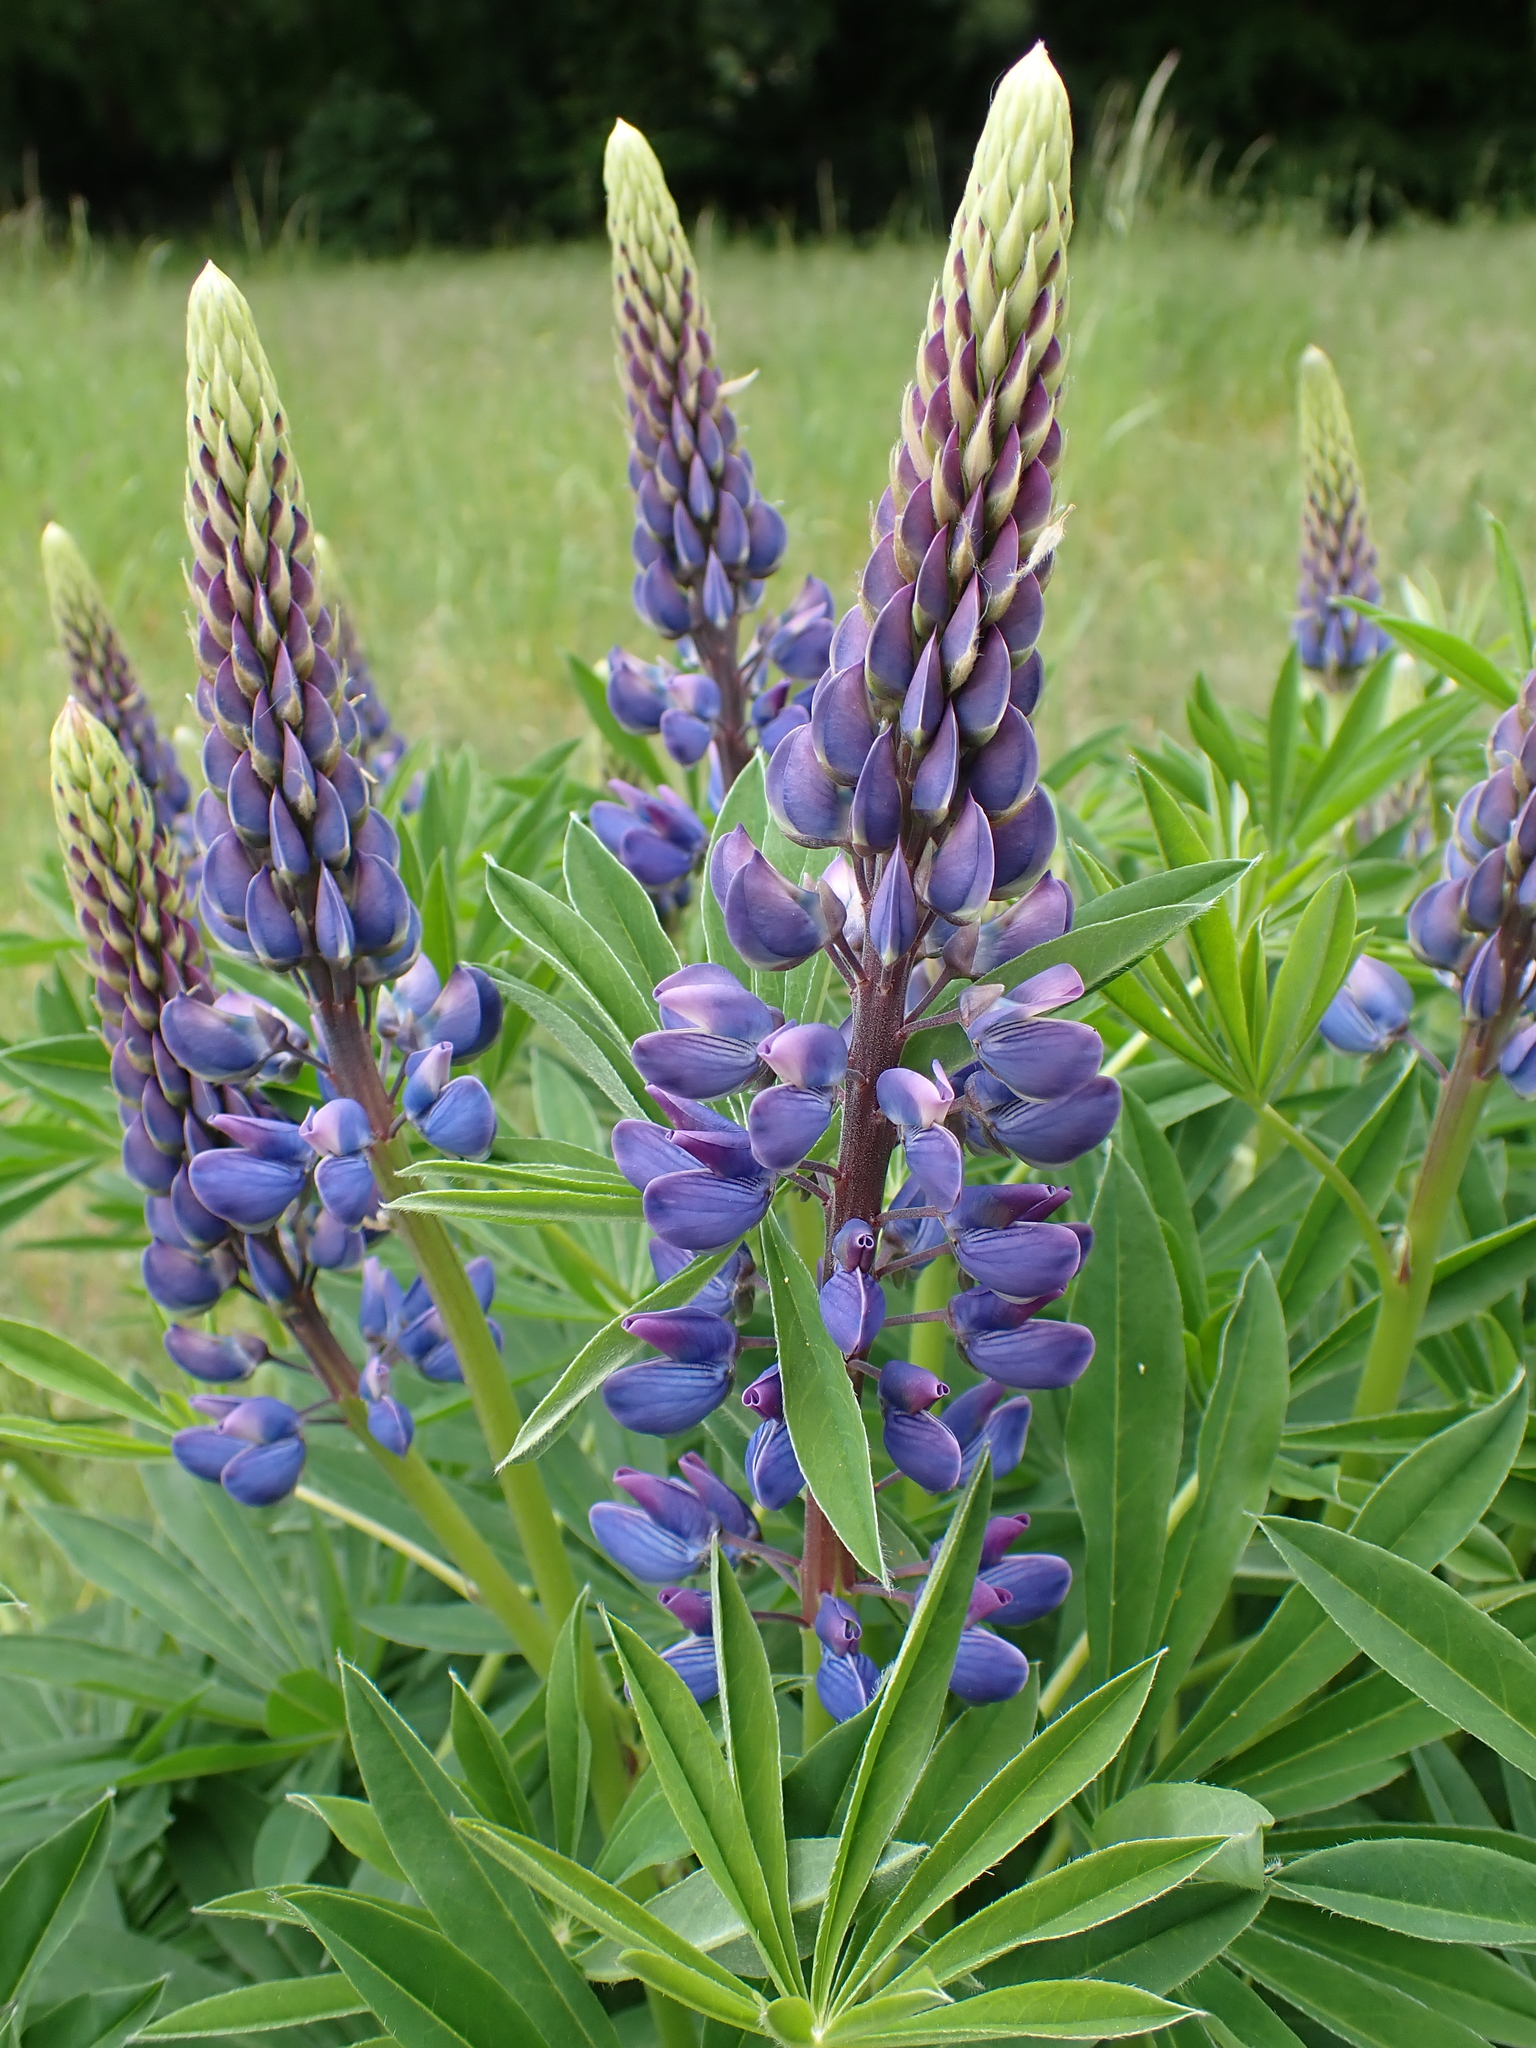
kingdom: Plantae
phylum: Tracheophyta
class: Magnoliopsida
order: Fabales
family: Fabaceae
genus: Lupinus
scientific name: Lupinus polyphyllus
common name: Garden lupin
